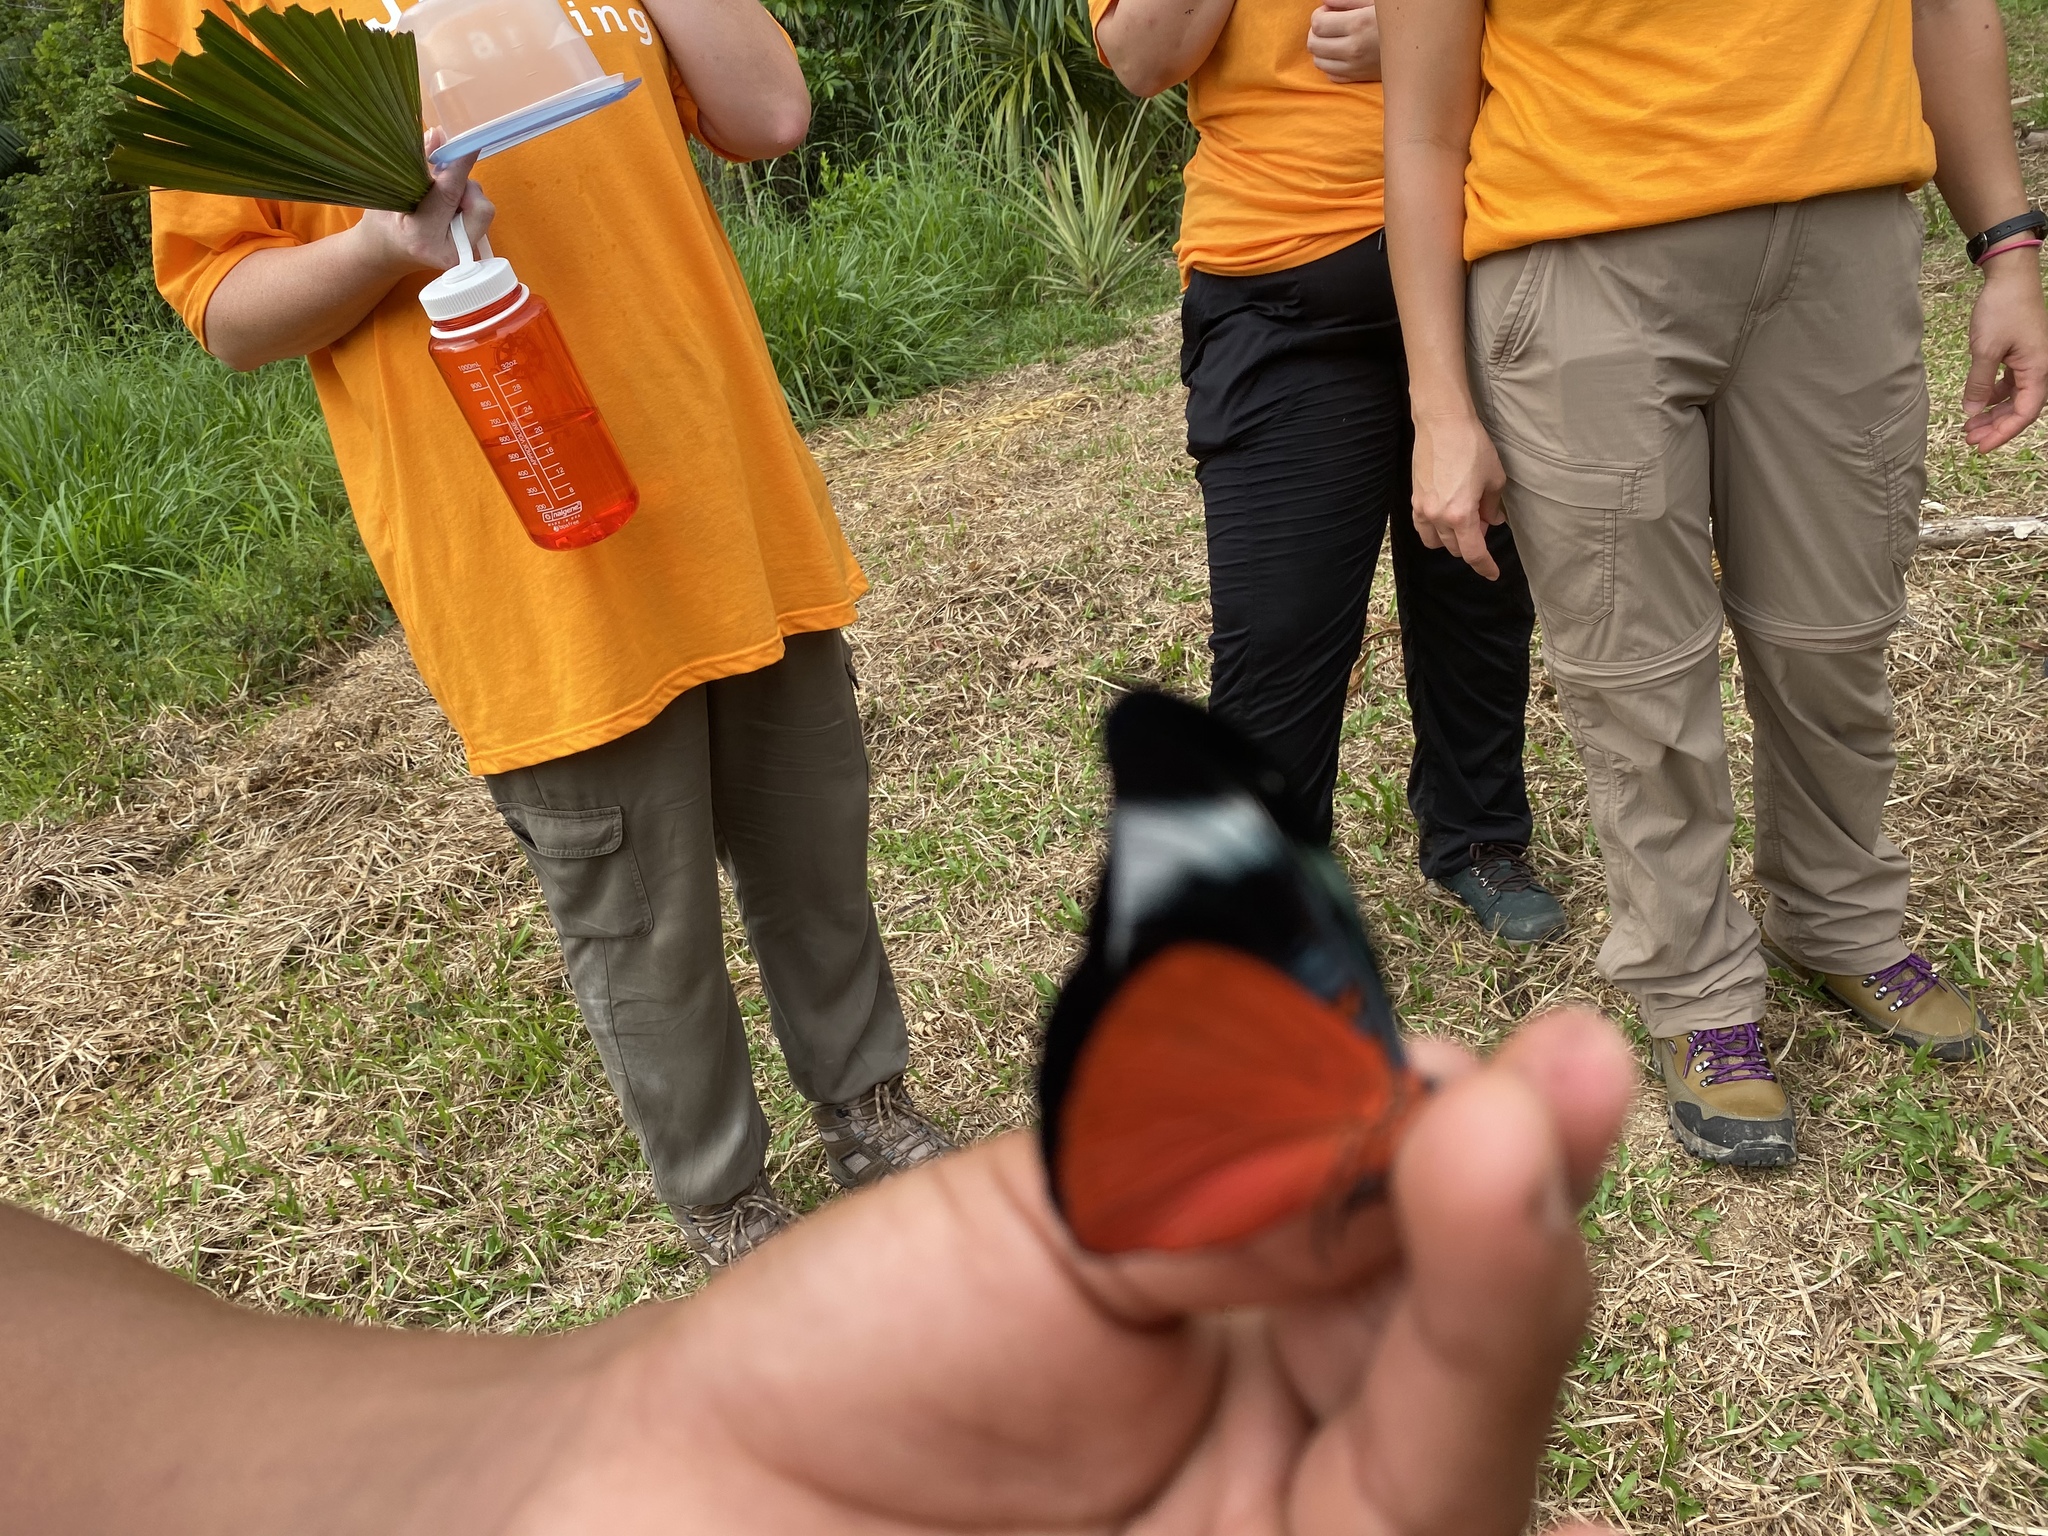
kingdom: Animalia
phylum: Arthropoda
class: Insecta
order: Lepidoptera
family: Nymphalidae
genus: Panacea
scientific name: Panacea prola
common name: Red flasher
